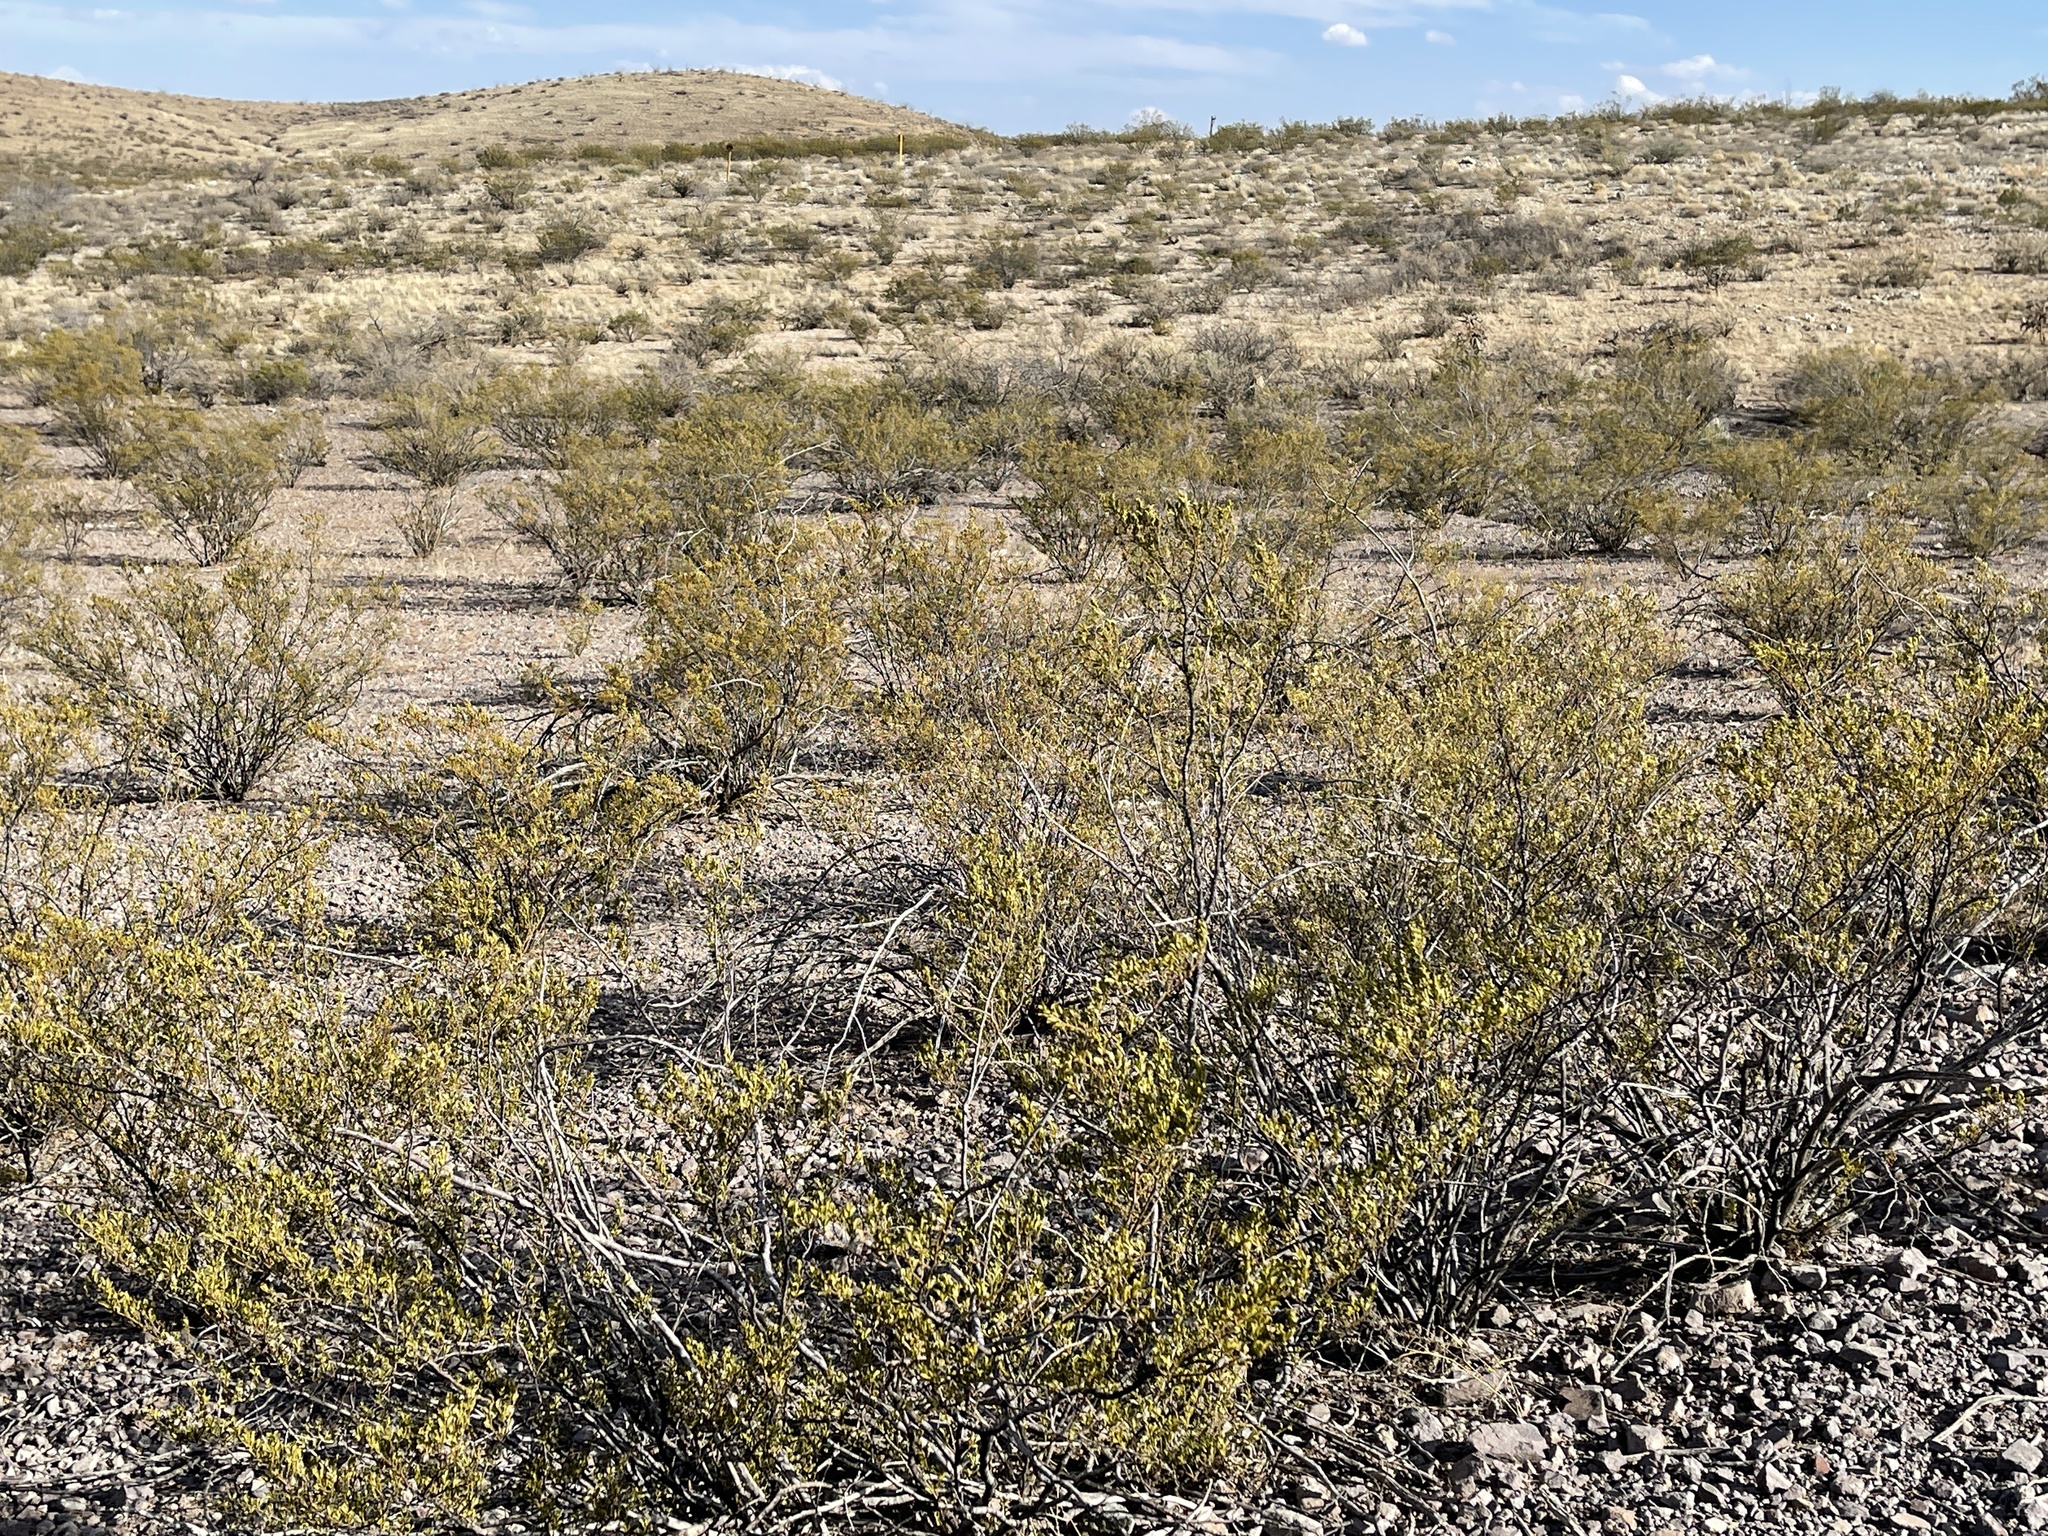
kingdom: Plantae
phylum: Tracheophyta
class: Magnoliopsida
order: Zygophyllales
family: Zygophyllaceae
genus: Larrea
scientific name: Larrea tridentata
